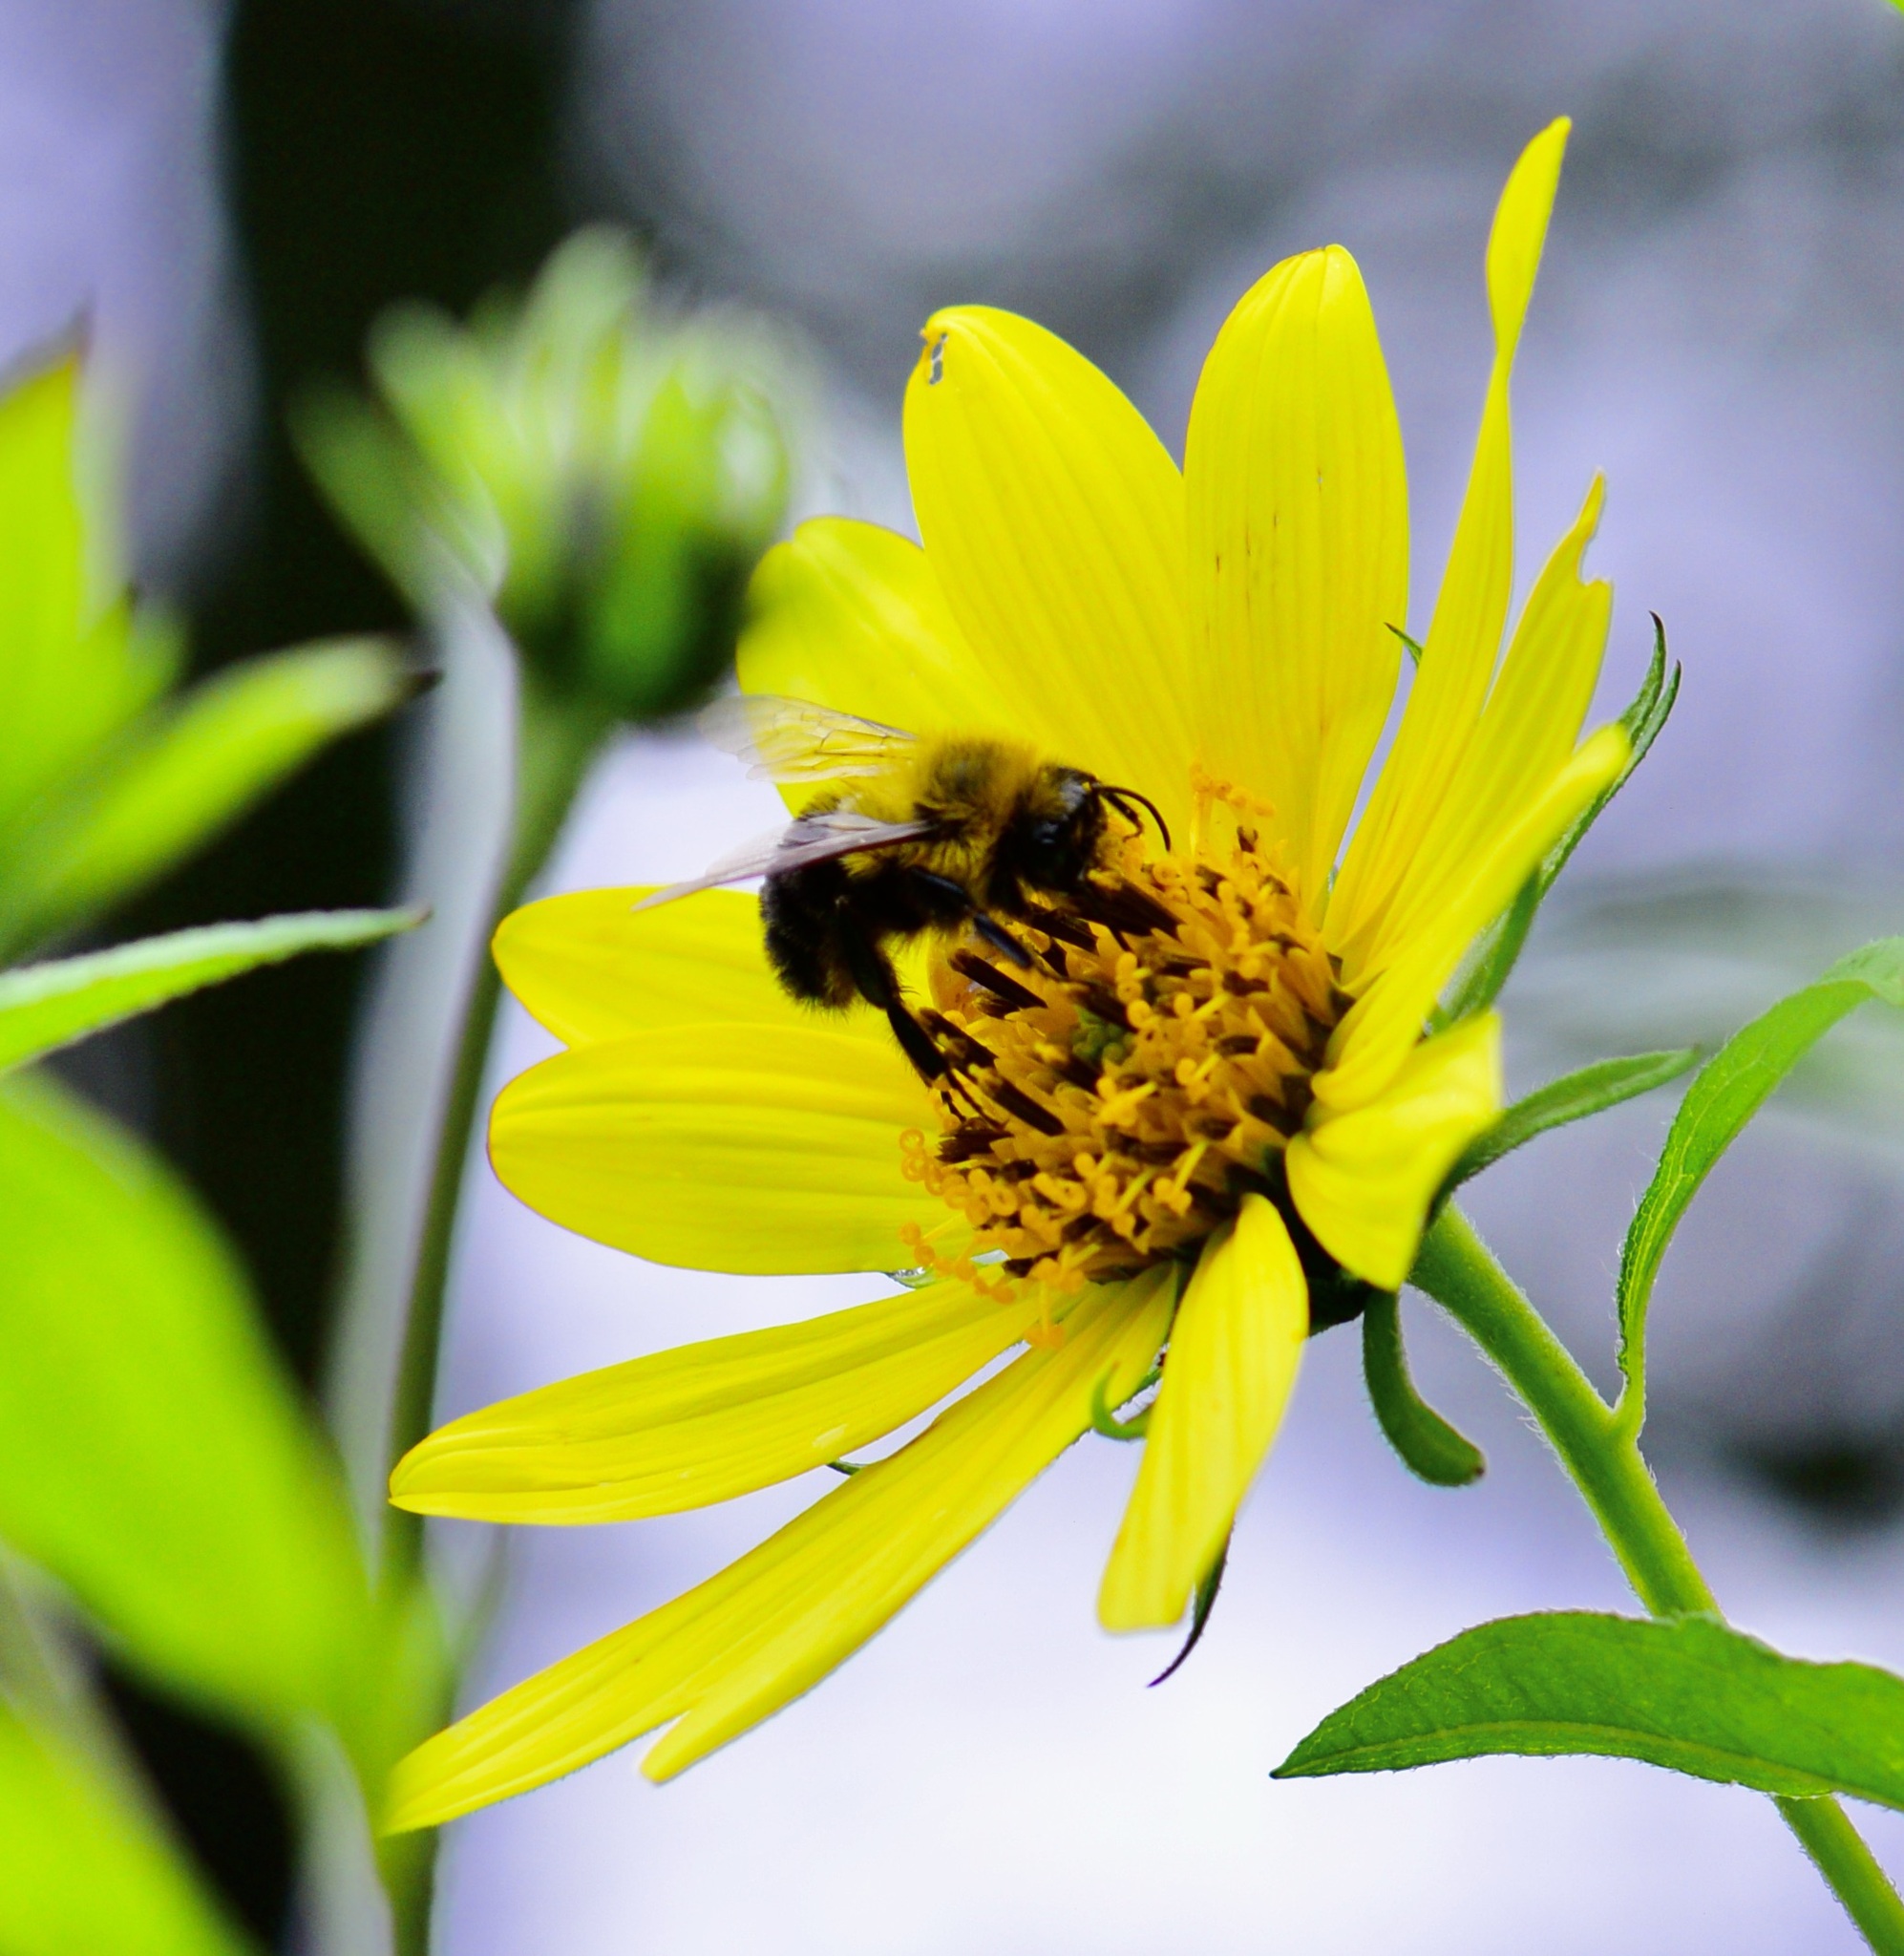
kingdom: Animalia
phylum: Arthropoda
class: Insecta
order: Hymenoptera
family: Apidae
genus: Bombus
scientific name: Bombus impatiens
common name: Common eastern bumble bee
